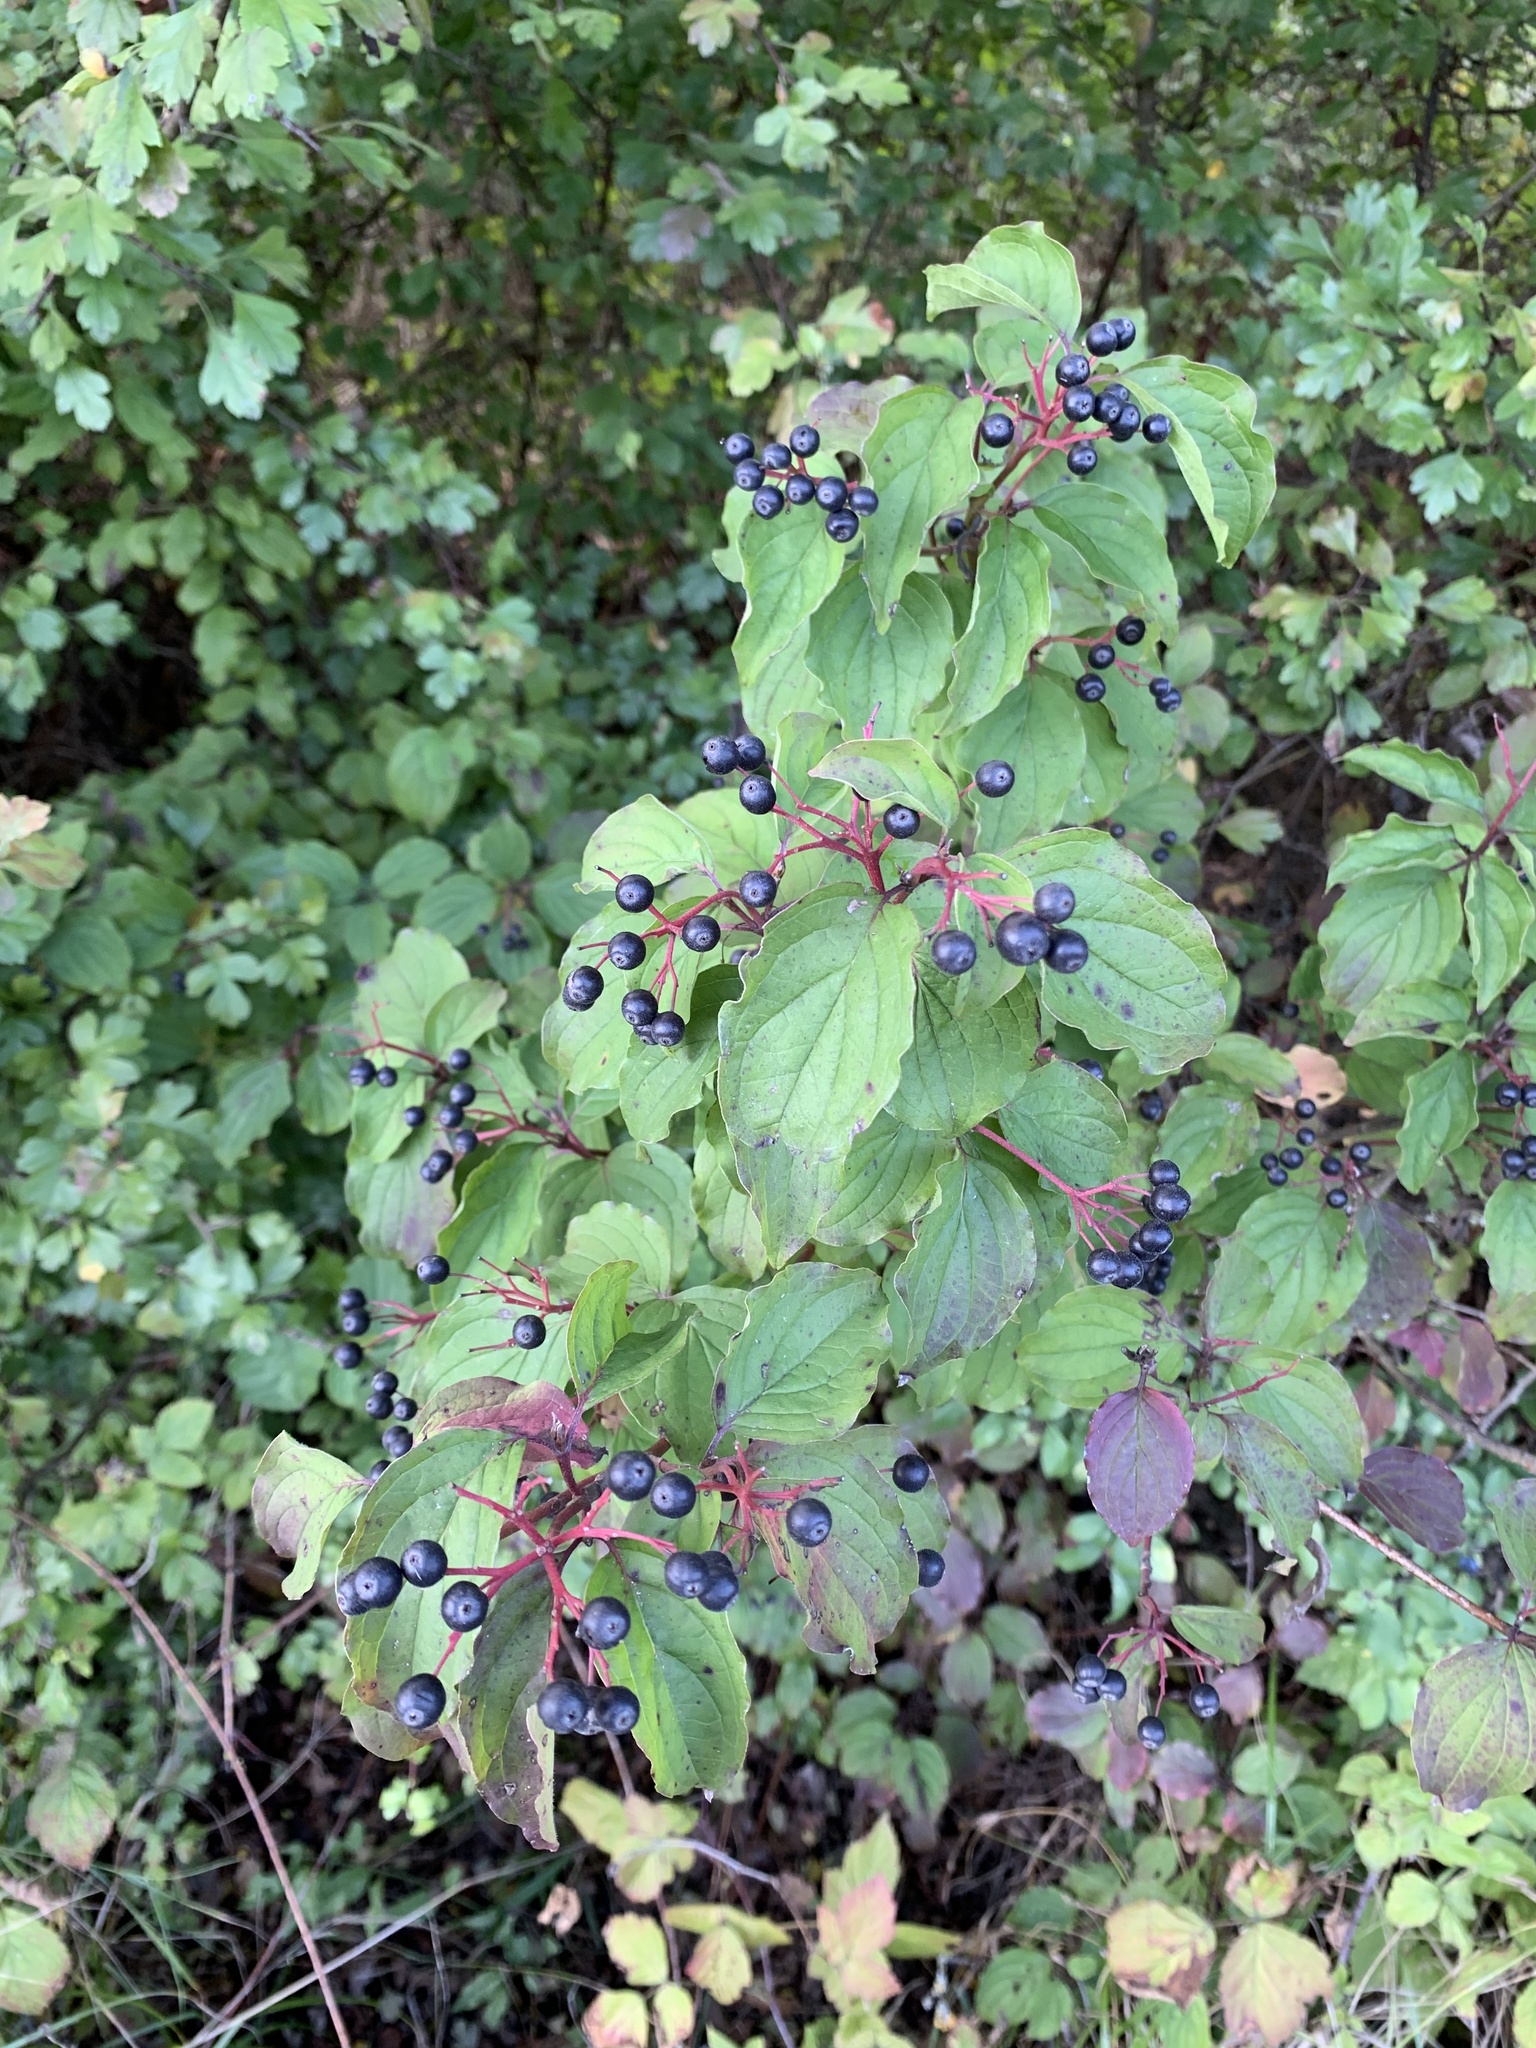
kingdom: Plantae
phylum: Tracheophyta
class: Magnoliopsida
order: Cornales
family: Cornaceae
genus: Cornus
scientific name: Cornus sanguinea
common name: Dogwood
